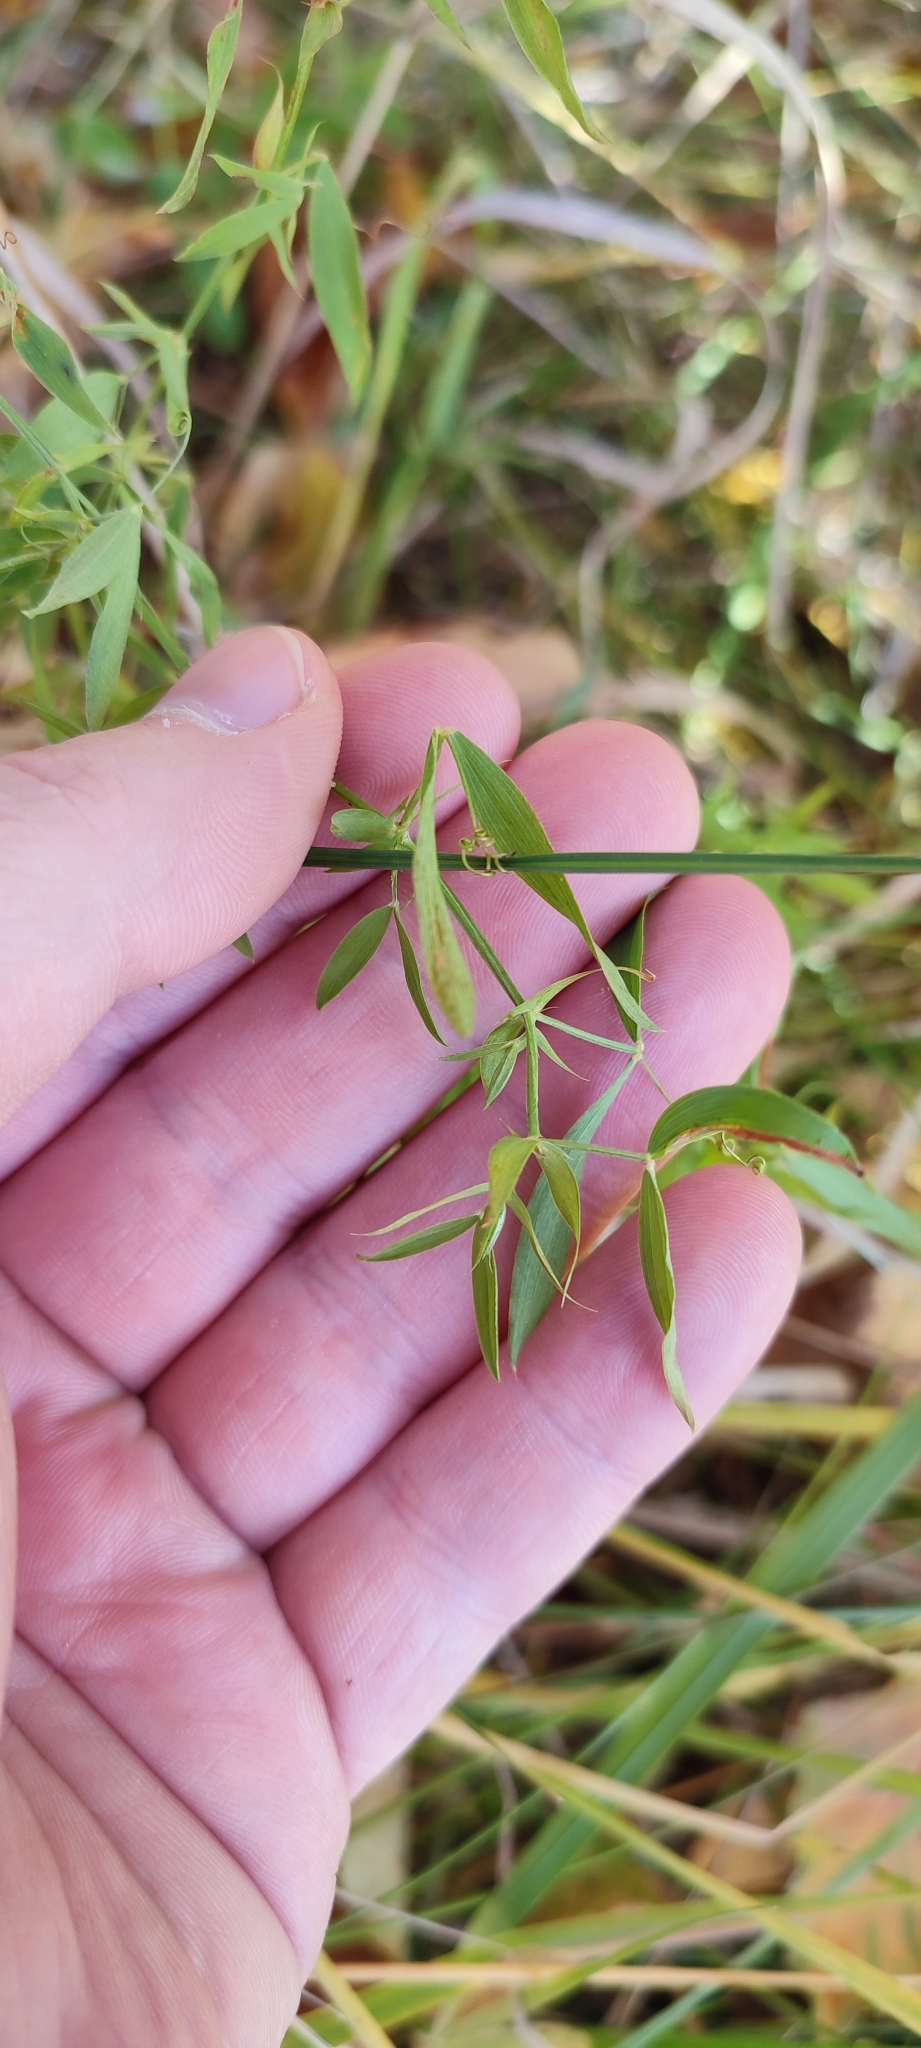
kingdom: Plantae
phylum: Tracheophyta
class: Magnoliopsida
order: Fabales
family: Fabaceae
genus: Lathyrus
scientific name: Lathyrus pratensis
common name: Meadow vetchling
